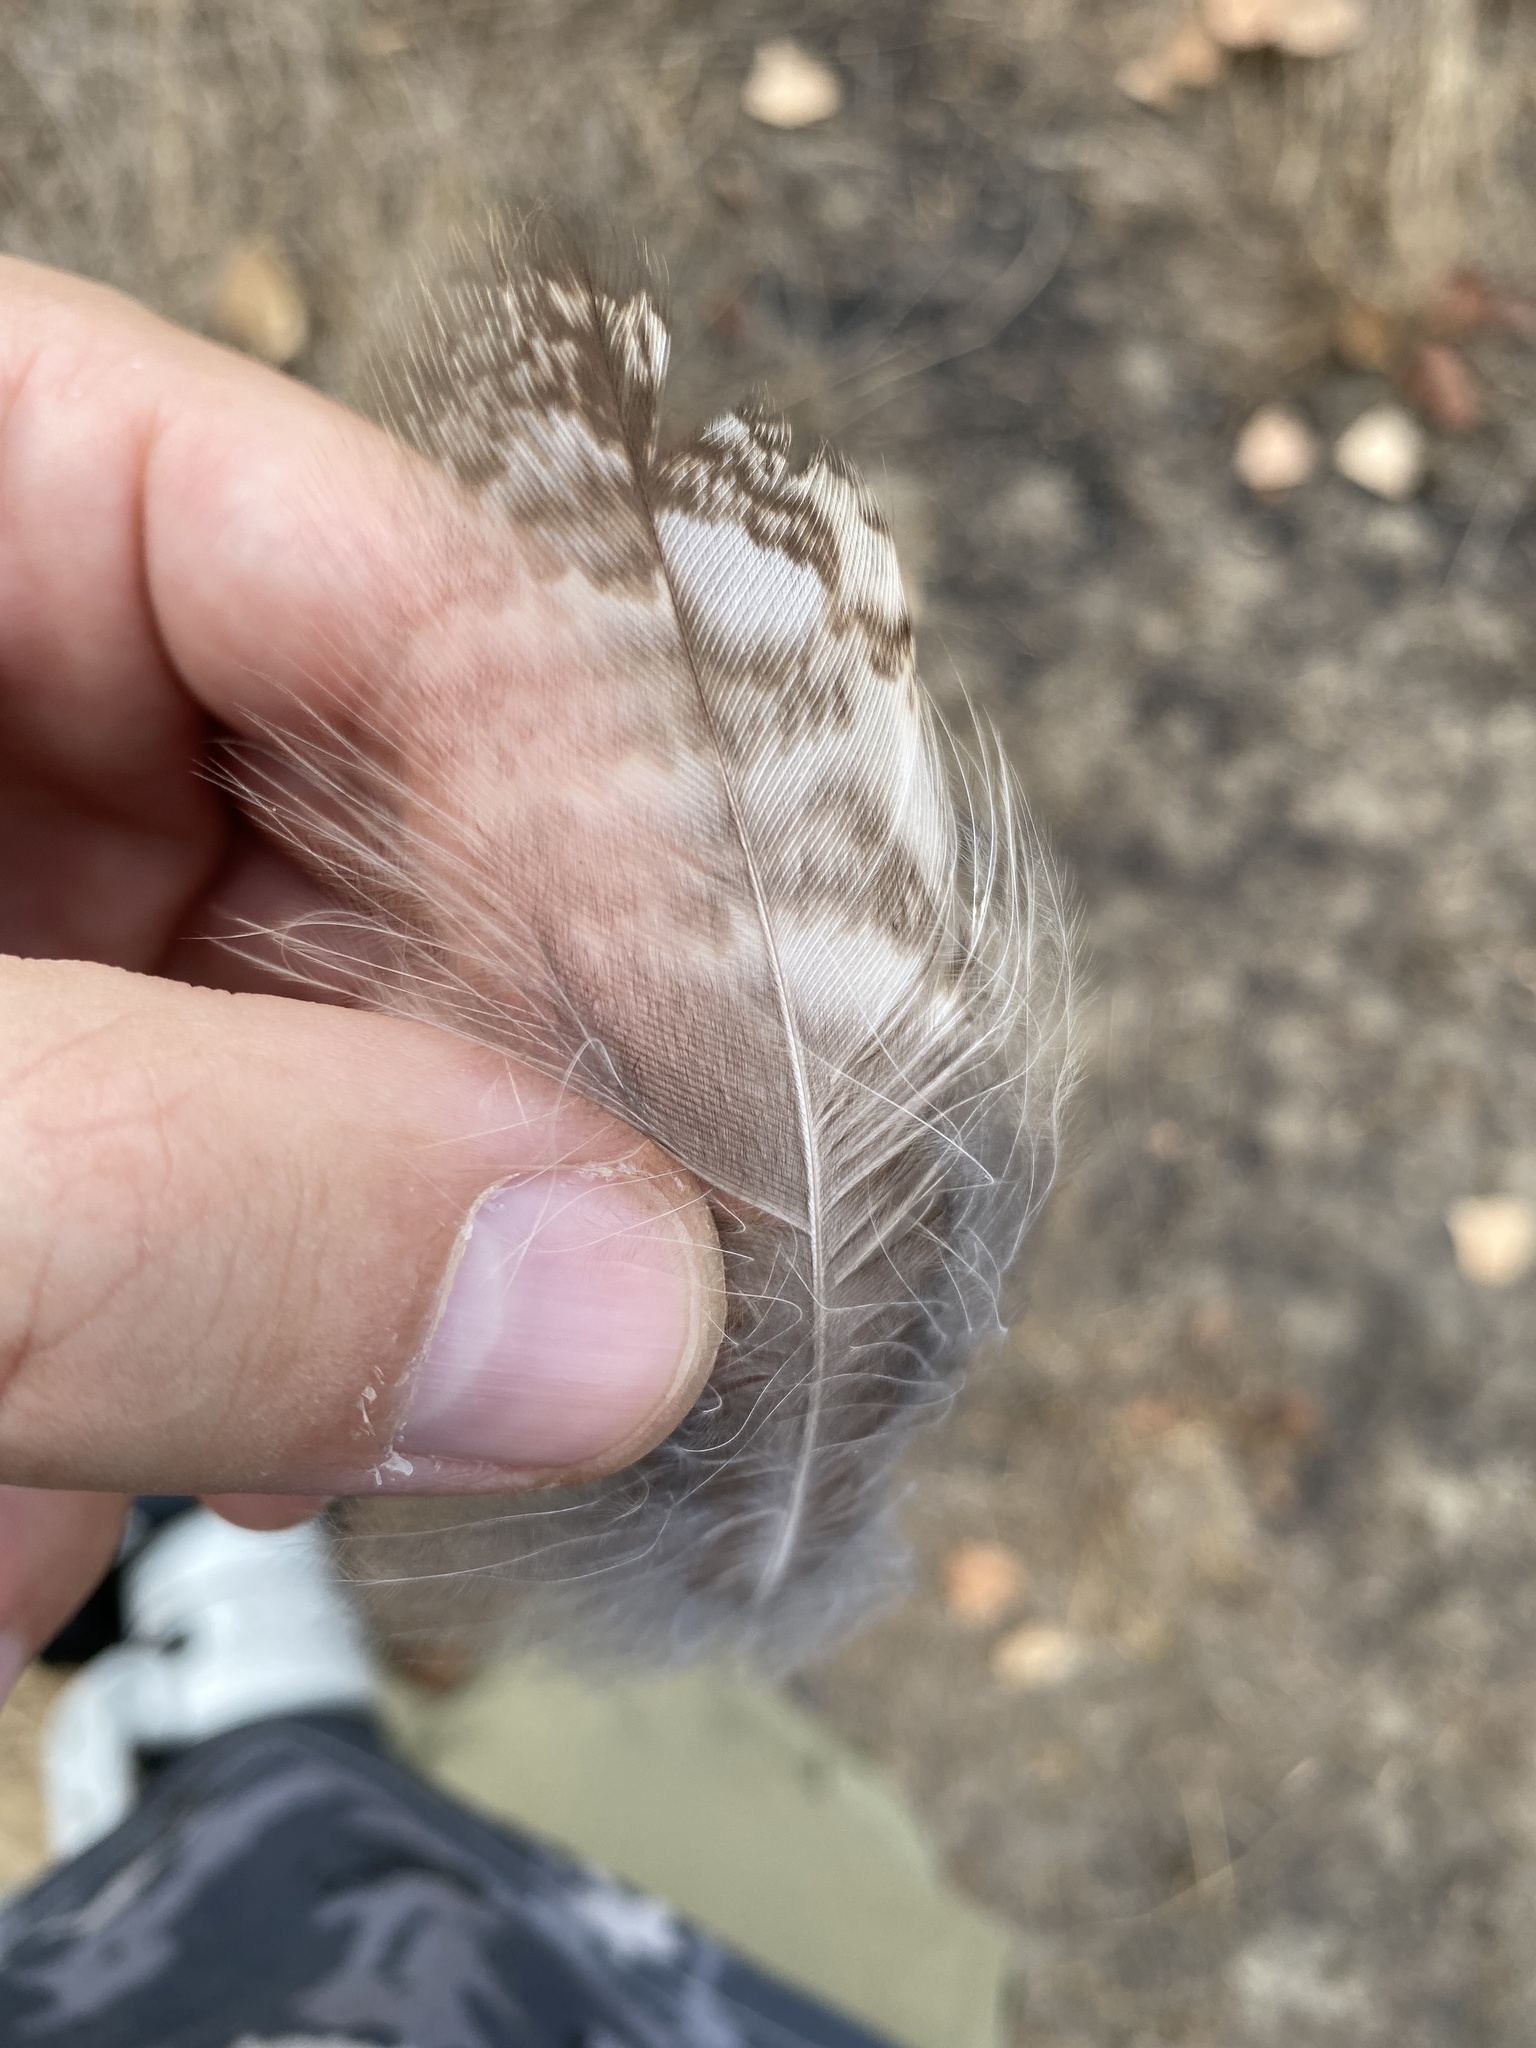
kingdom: Animalia
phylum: Chordata
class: Aves
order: Strigiformes
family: Strigidae
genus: Strix
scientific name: Strix aluco
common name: Tawny owl
